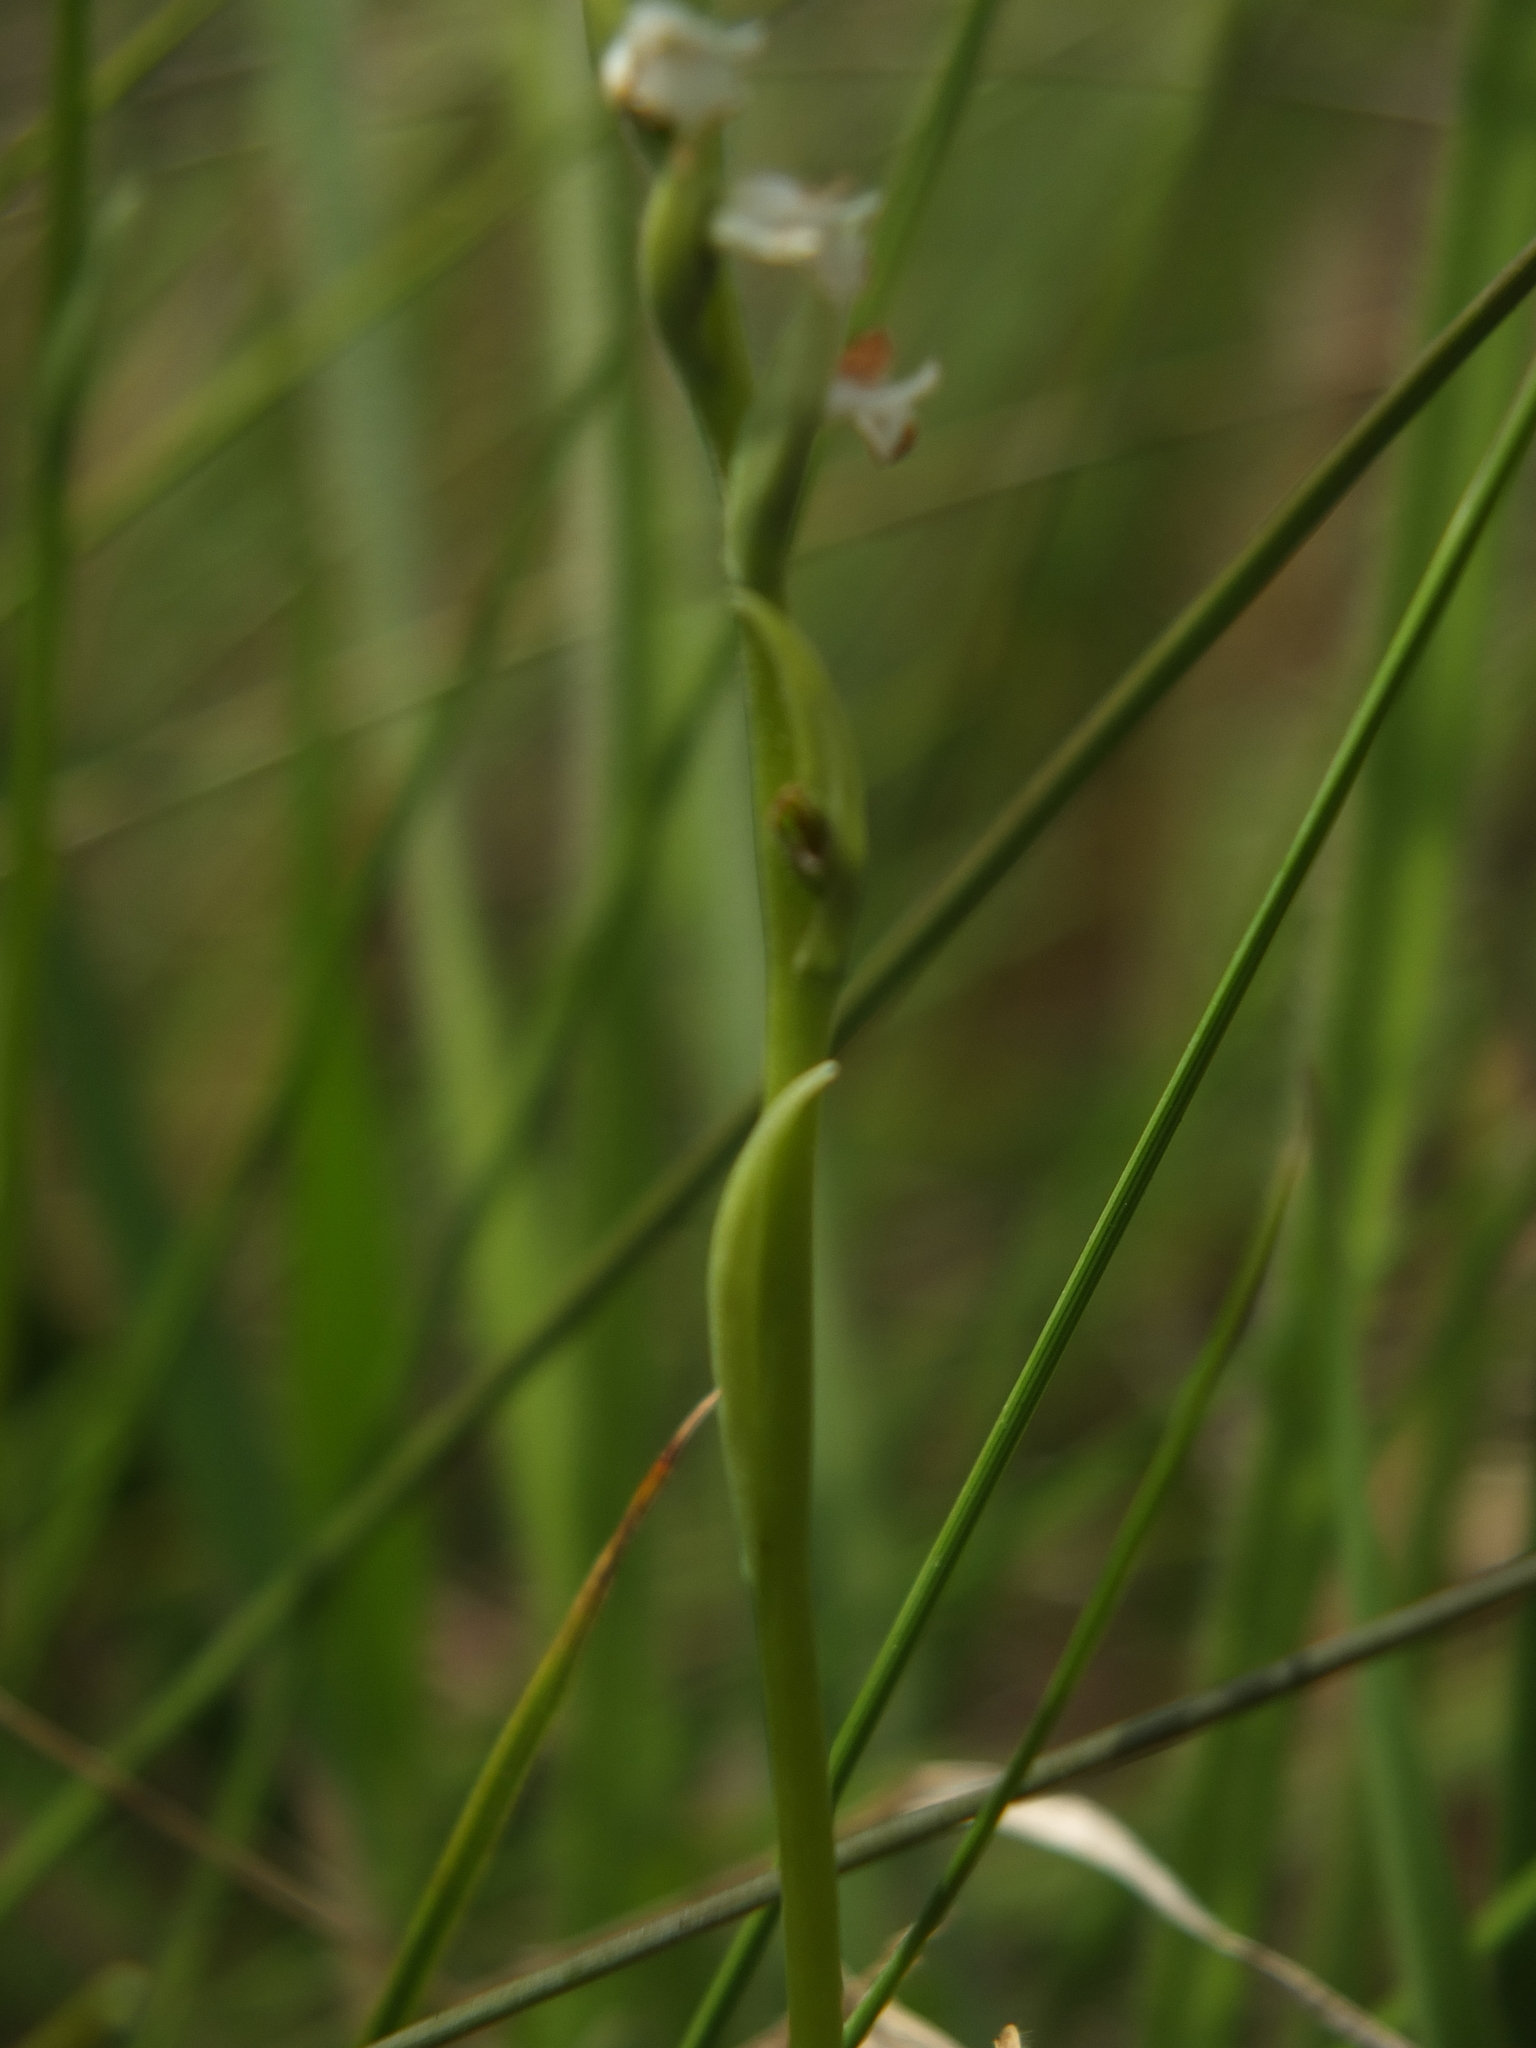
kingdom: Plantae
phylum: Tracheophyta
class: Liliopsida
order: Asparagales
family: Orchidaceae
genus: Spiranthes
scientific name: Spiranthes flexuosa
